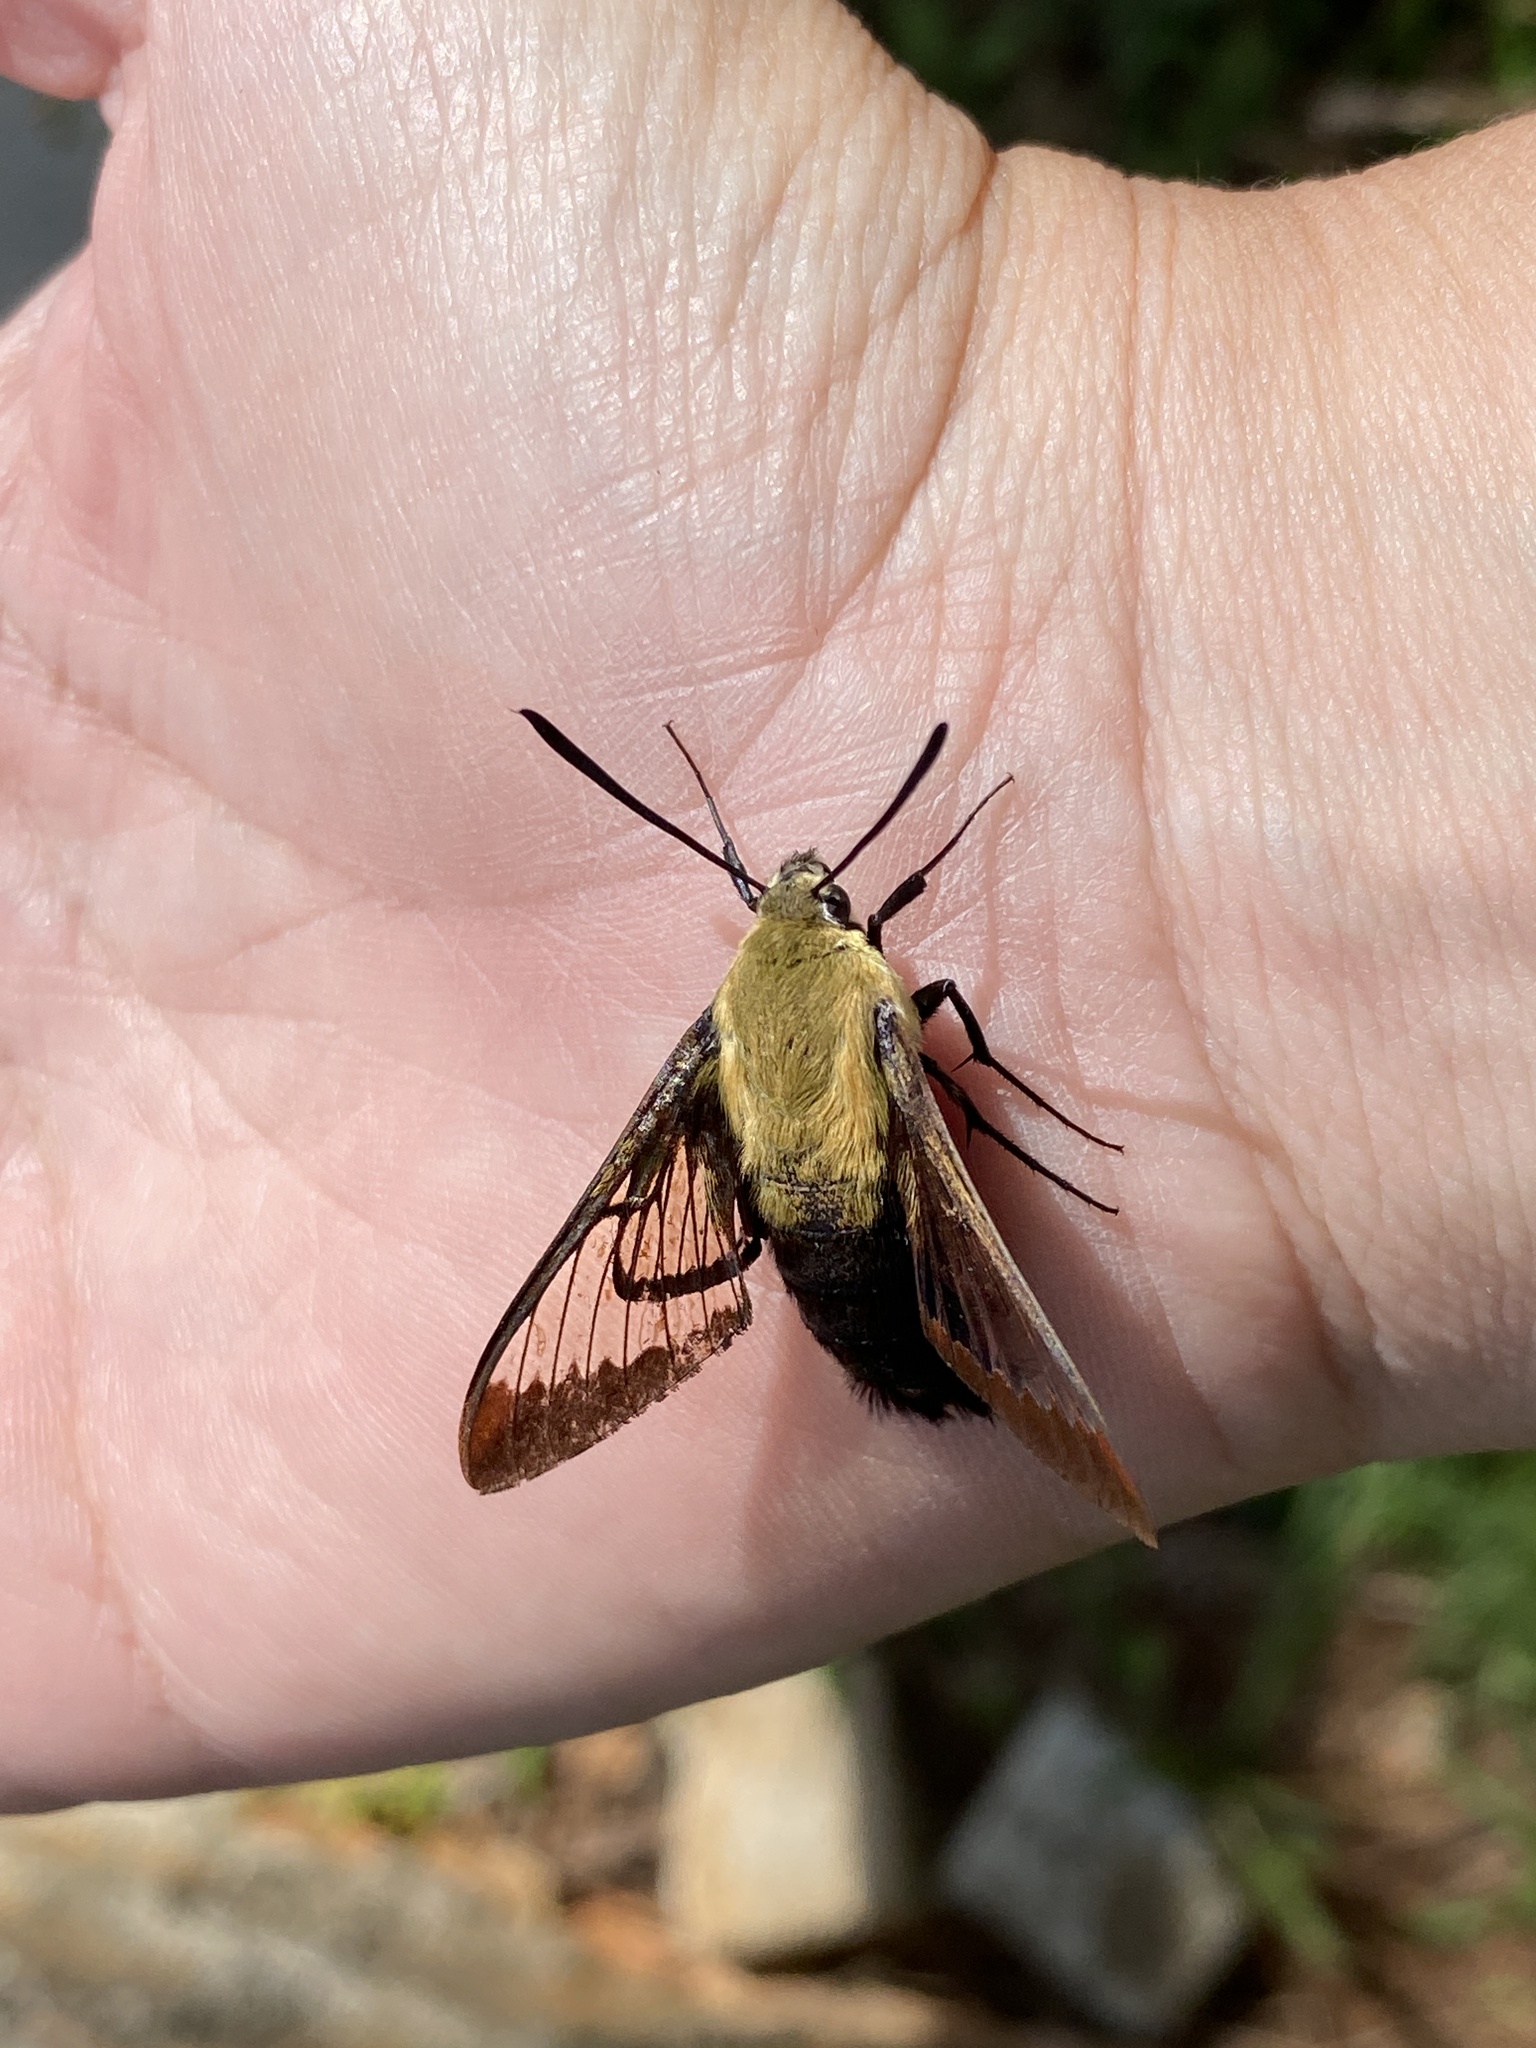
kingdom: Animalia
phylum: Arthropoda
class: Insecta
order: Lepidoptera
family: Sphingidae
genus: Hemaris
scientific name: Hemaris diffinis
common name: Bumblebee moth
